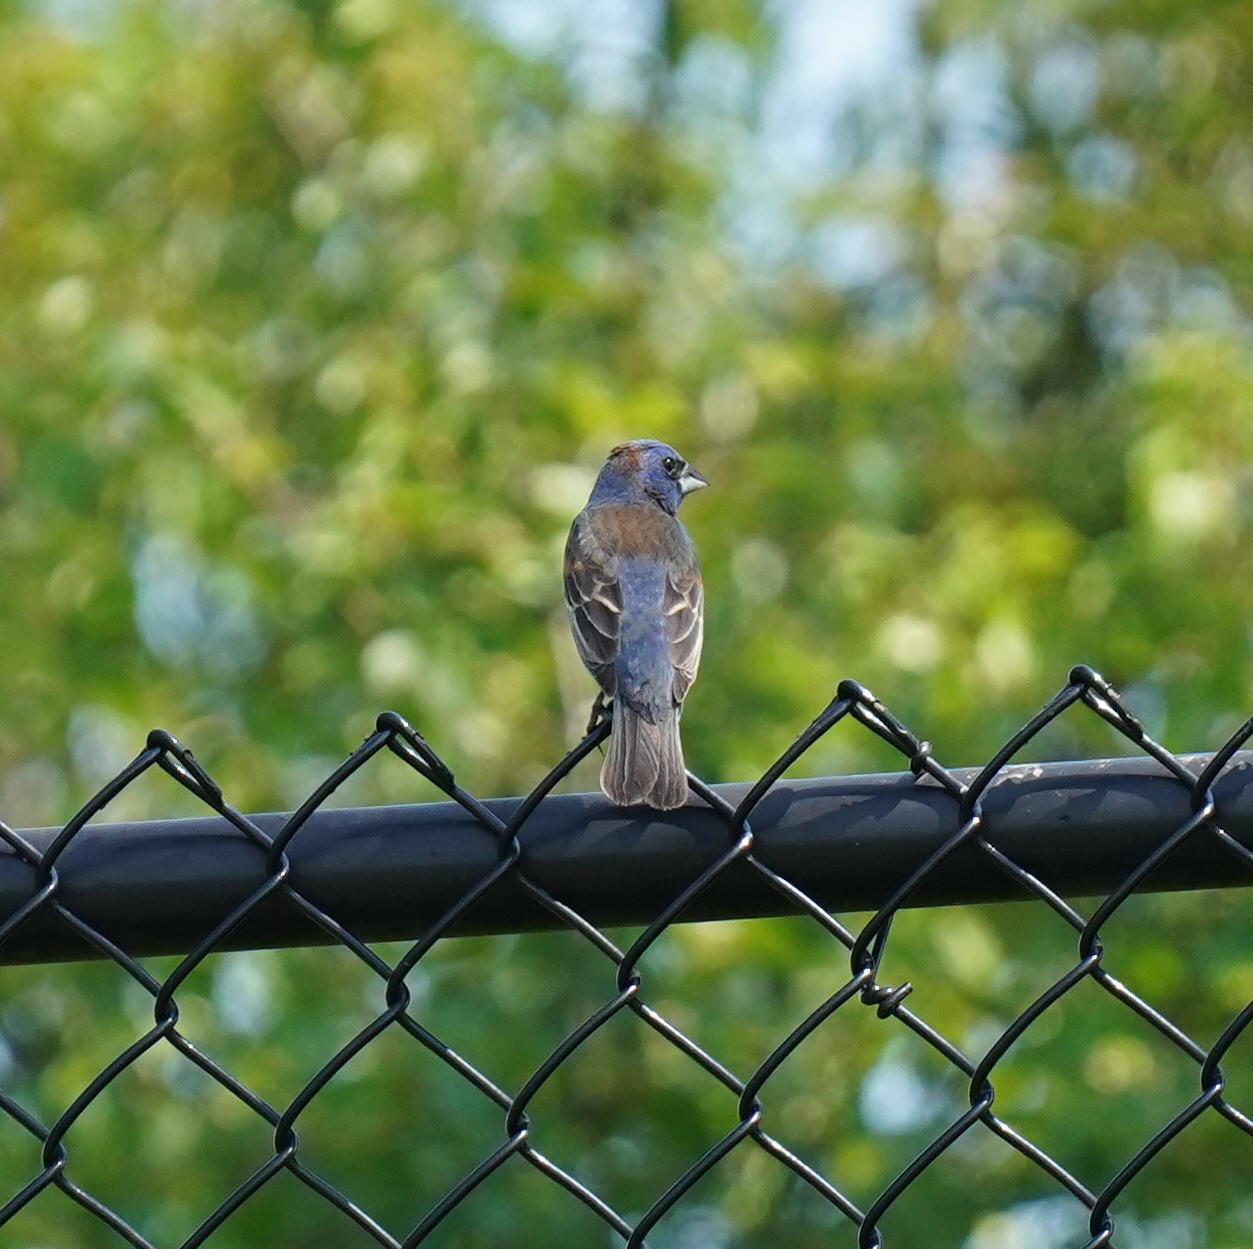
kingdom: Animalia
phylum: Chordata
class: Aves
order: Passeriformes
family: Cardinalidae
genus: Passerina
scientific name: Passerina caerulea
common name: Blue grosbeak
